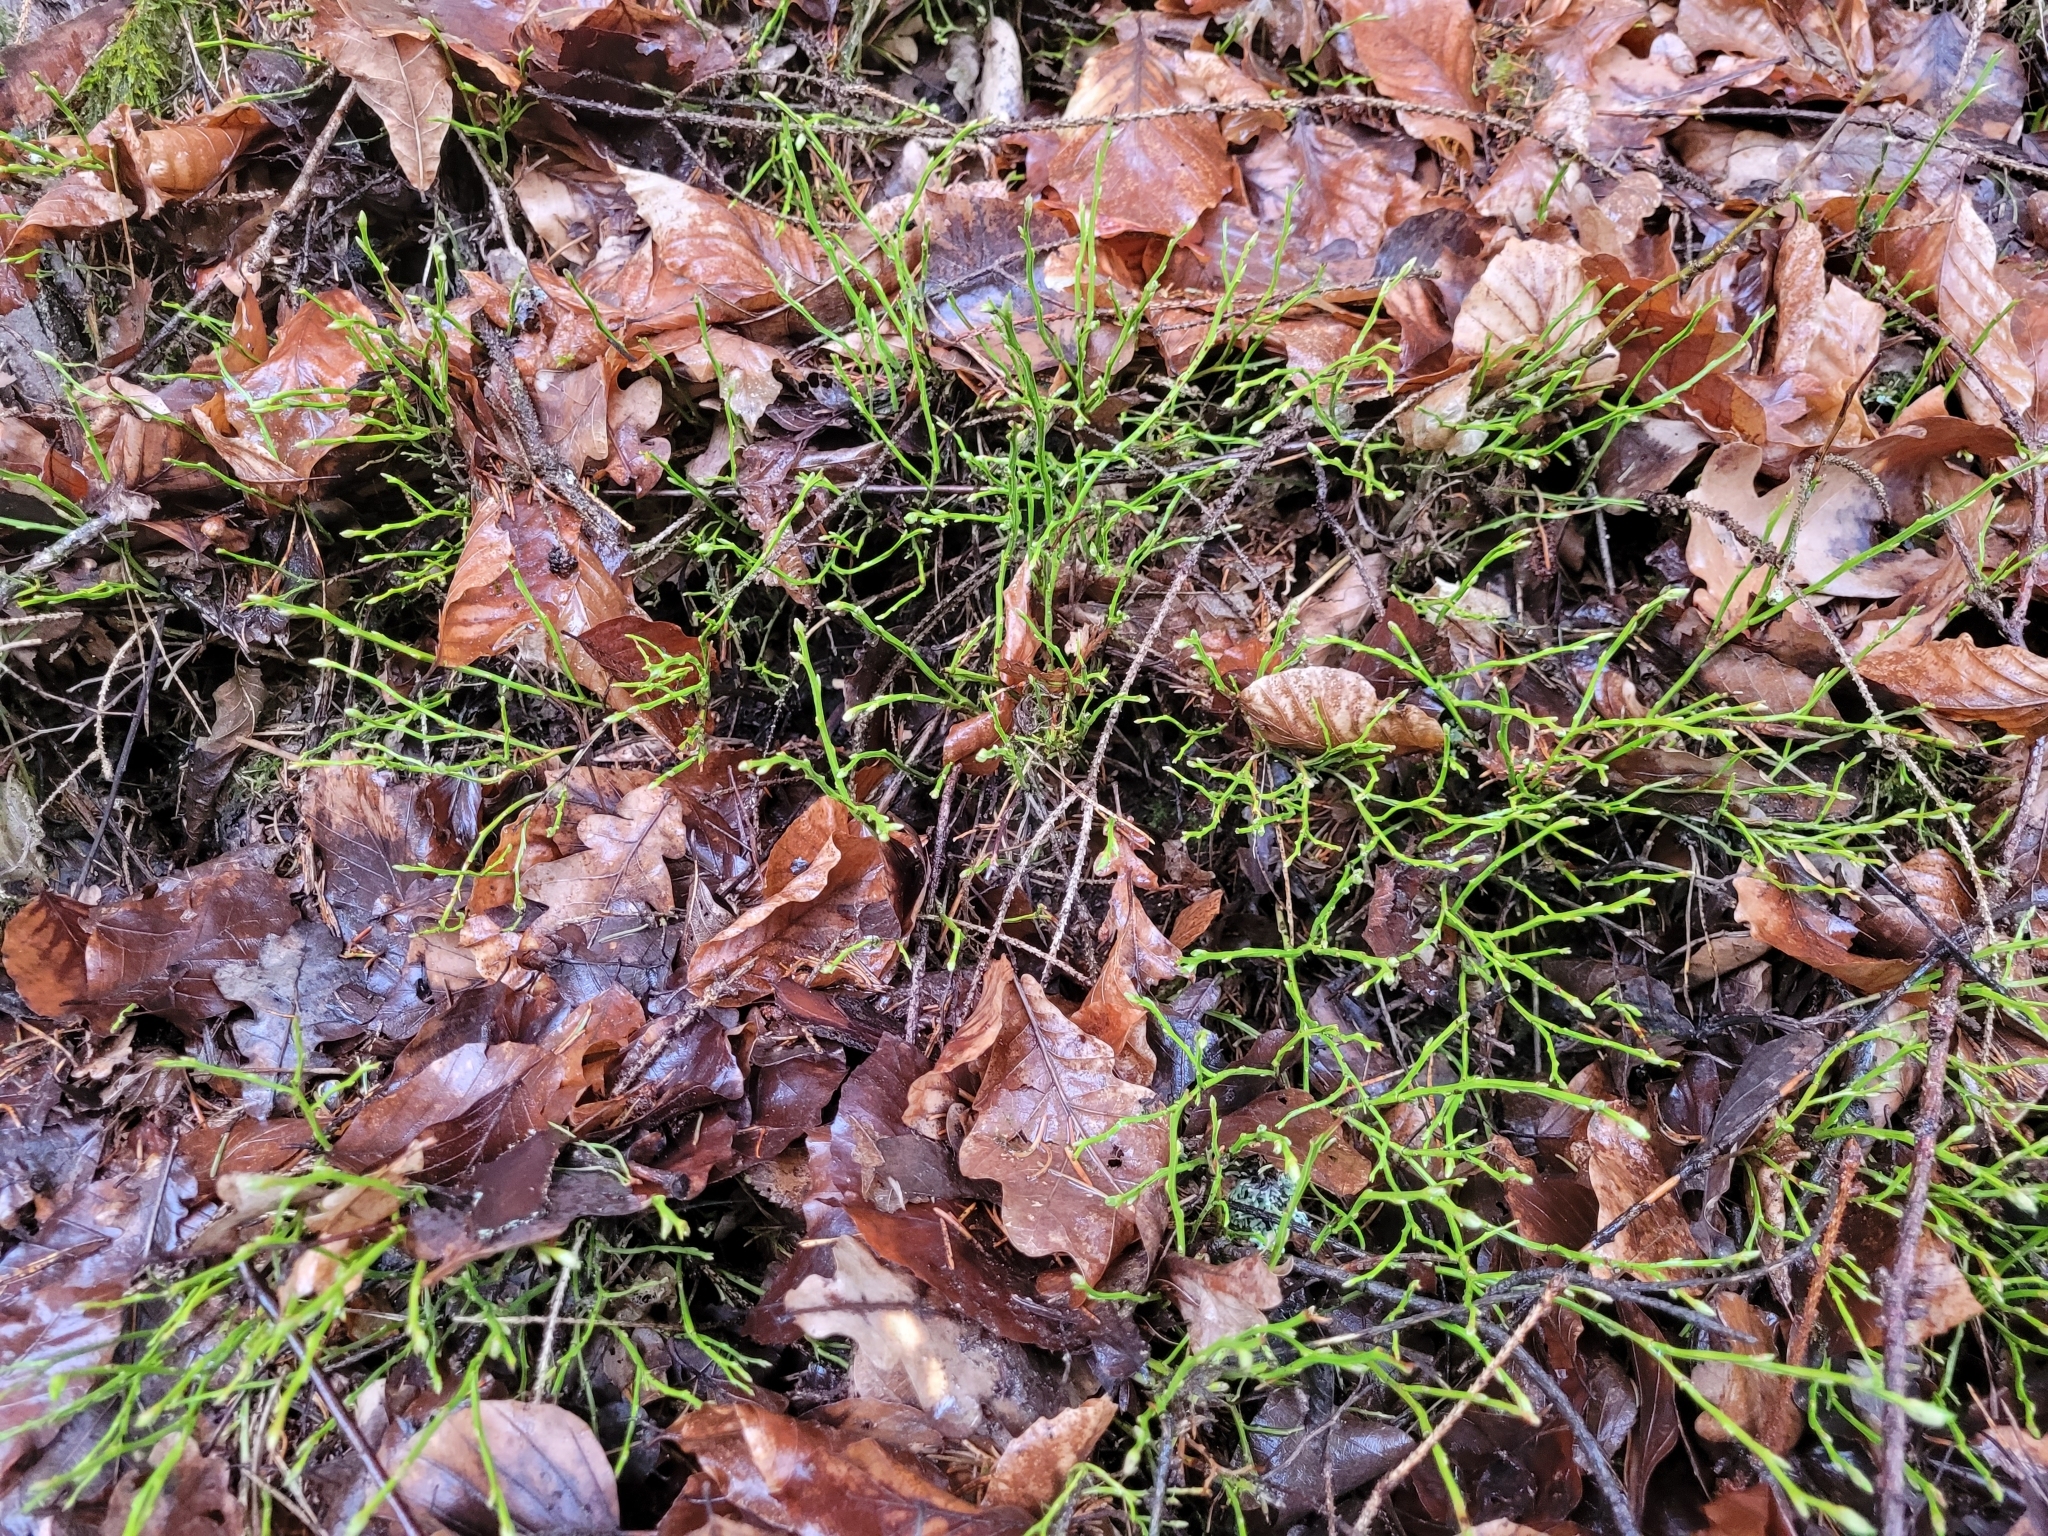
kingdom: Plantae
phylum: Tracheophyta
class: Magnoliopsida
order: Ericales
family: Ericaceae
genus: Vaccinium
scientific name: Vaccinium myrtillus
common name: Bilberry
